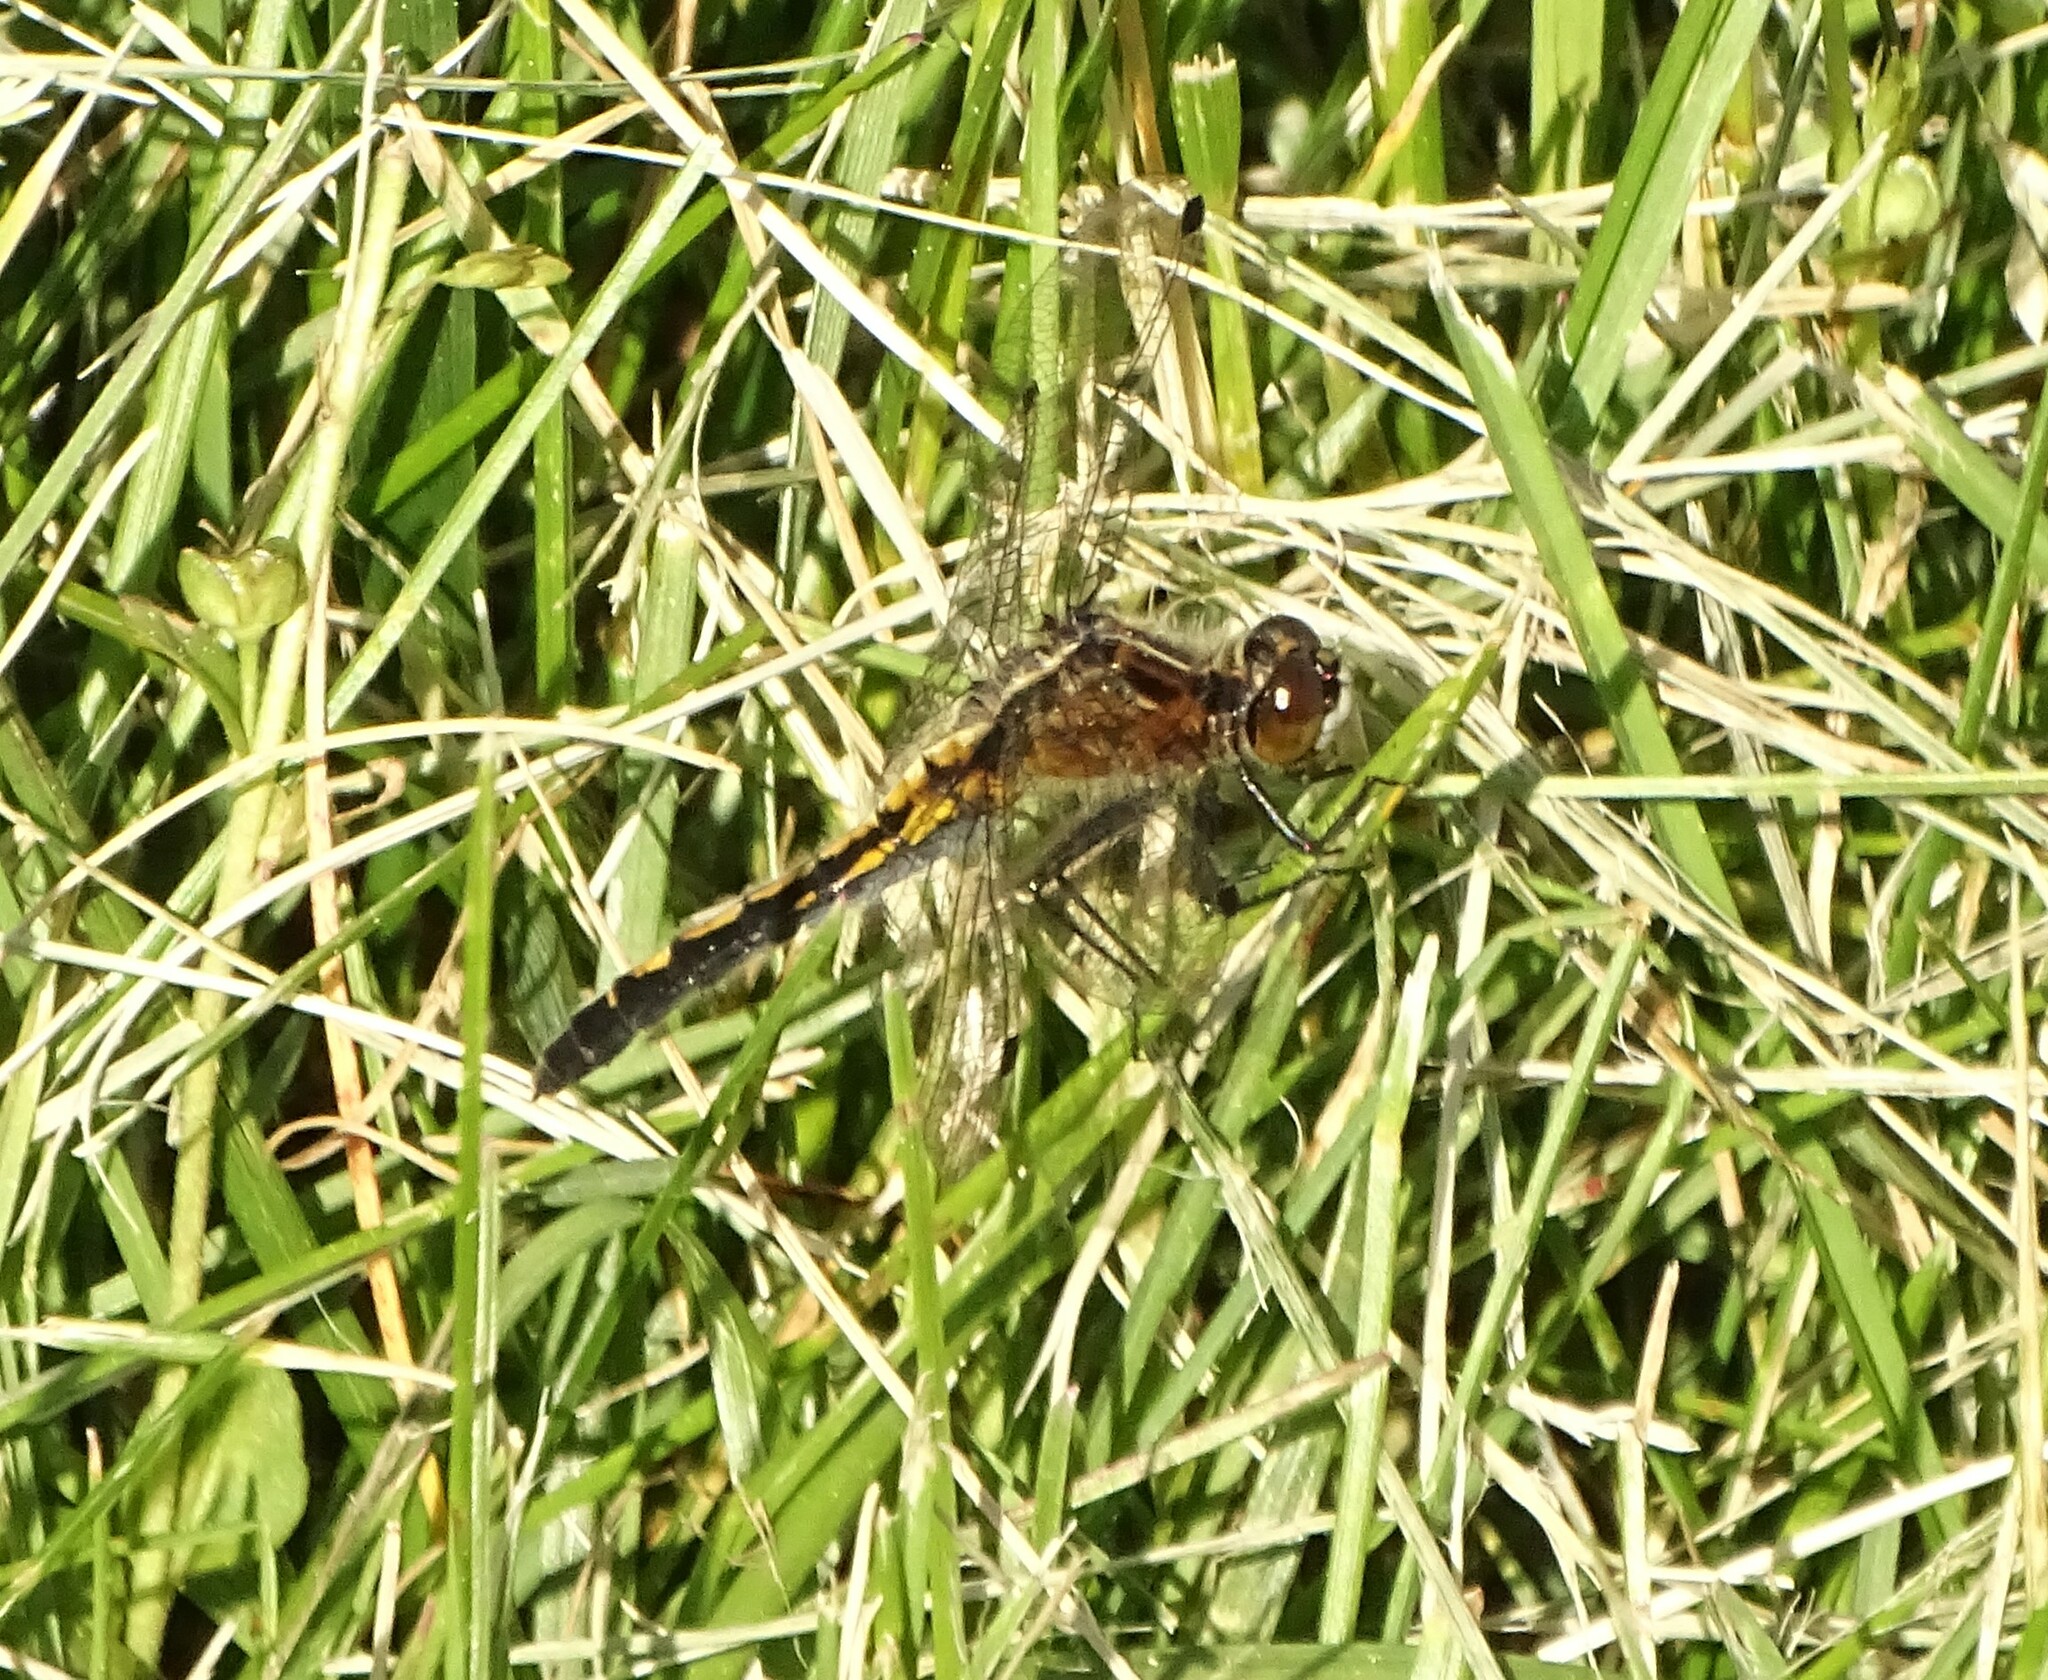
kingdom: Animalia
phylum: Arthropoda
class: Insecta
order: Odonata
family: Libellulidae
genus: Leucorrhinia
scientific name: Leucorrhinia intacta
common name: Dot-tailed whiteface
